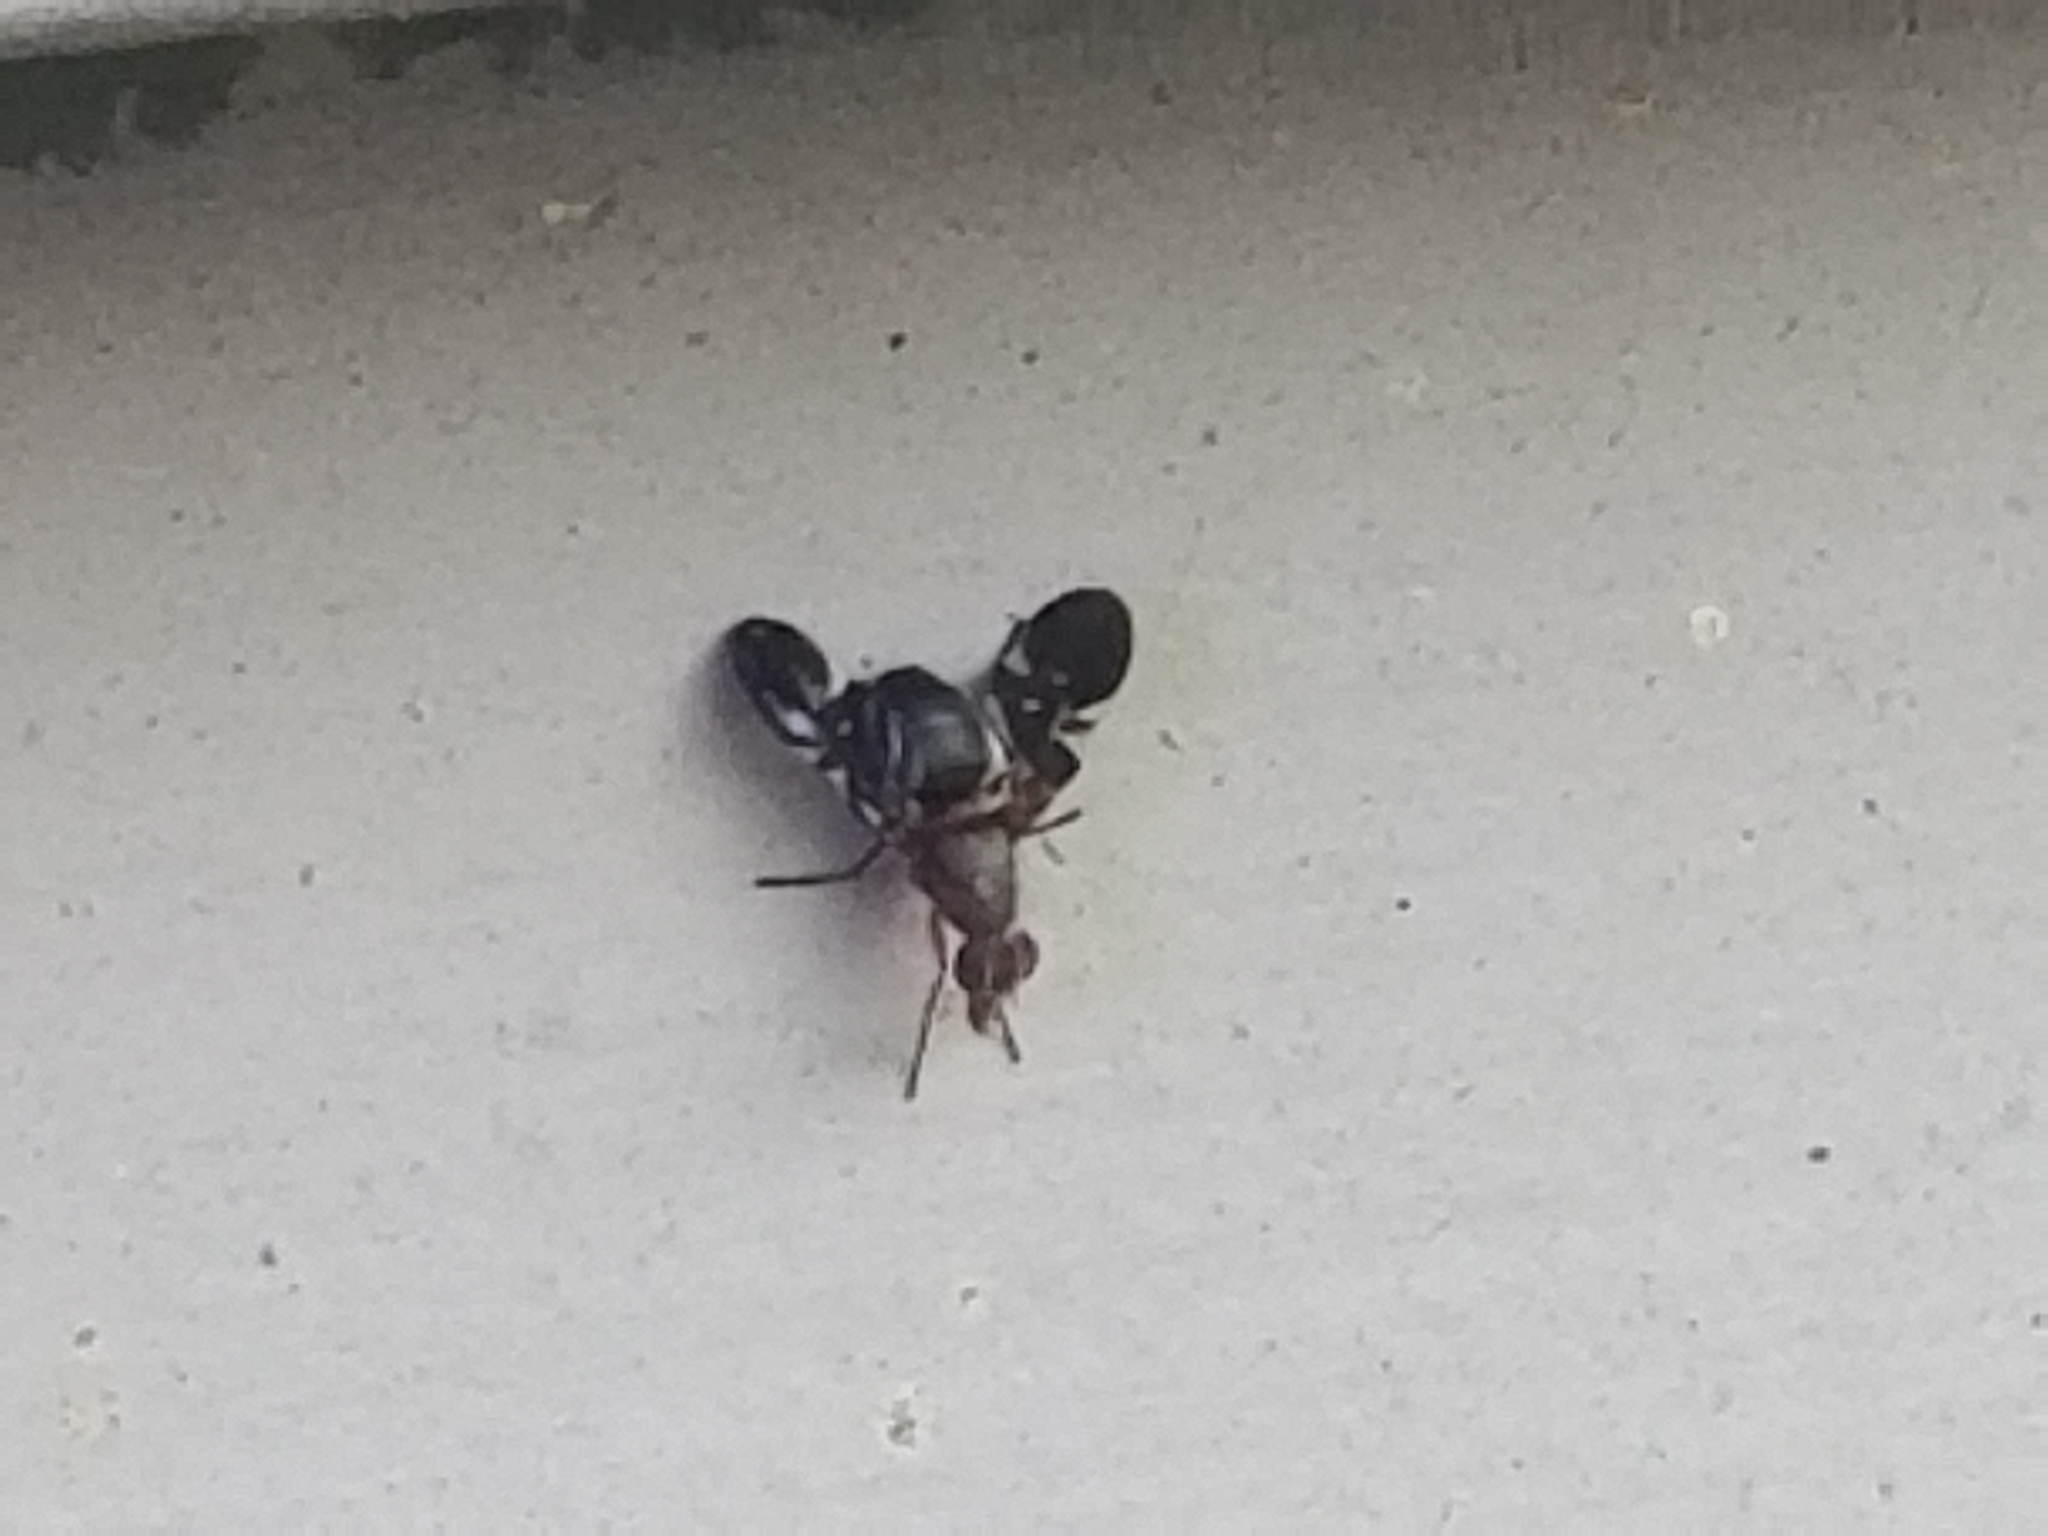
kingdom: Animalia
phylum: Arthropoda
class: Insecta
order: Diptera
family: Ulidiidae
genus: Delphinia
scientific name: Delphinia picta
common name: Common picture-winged fly
